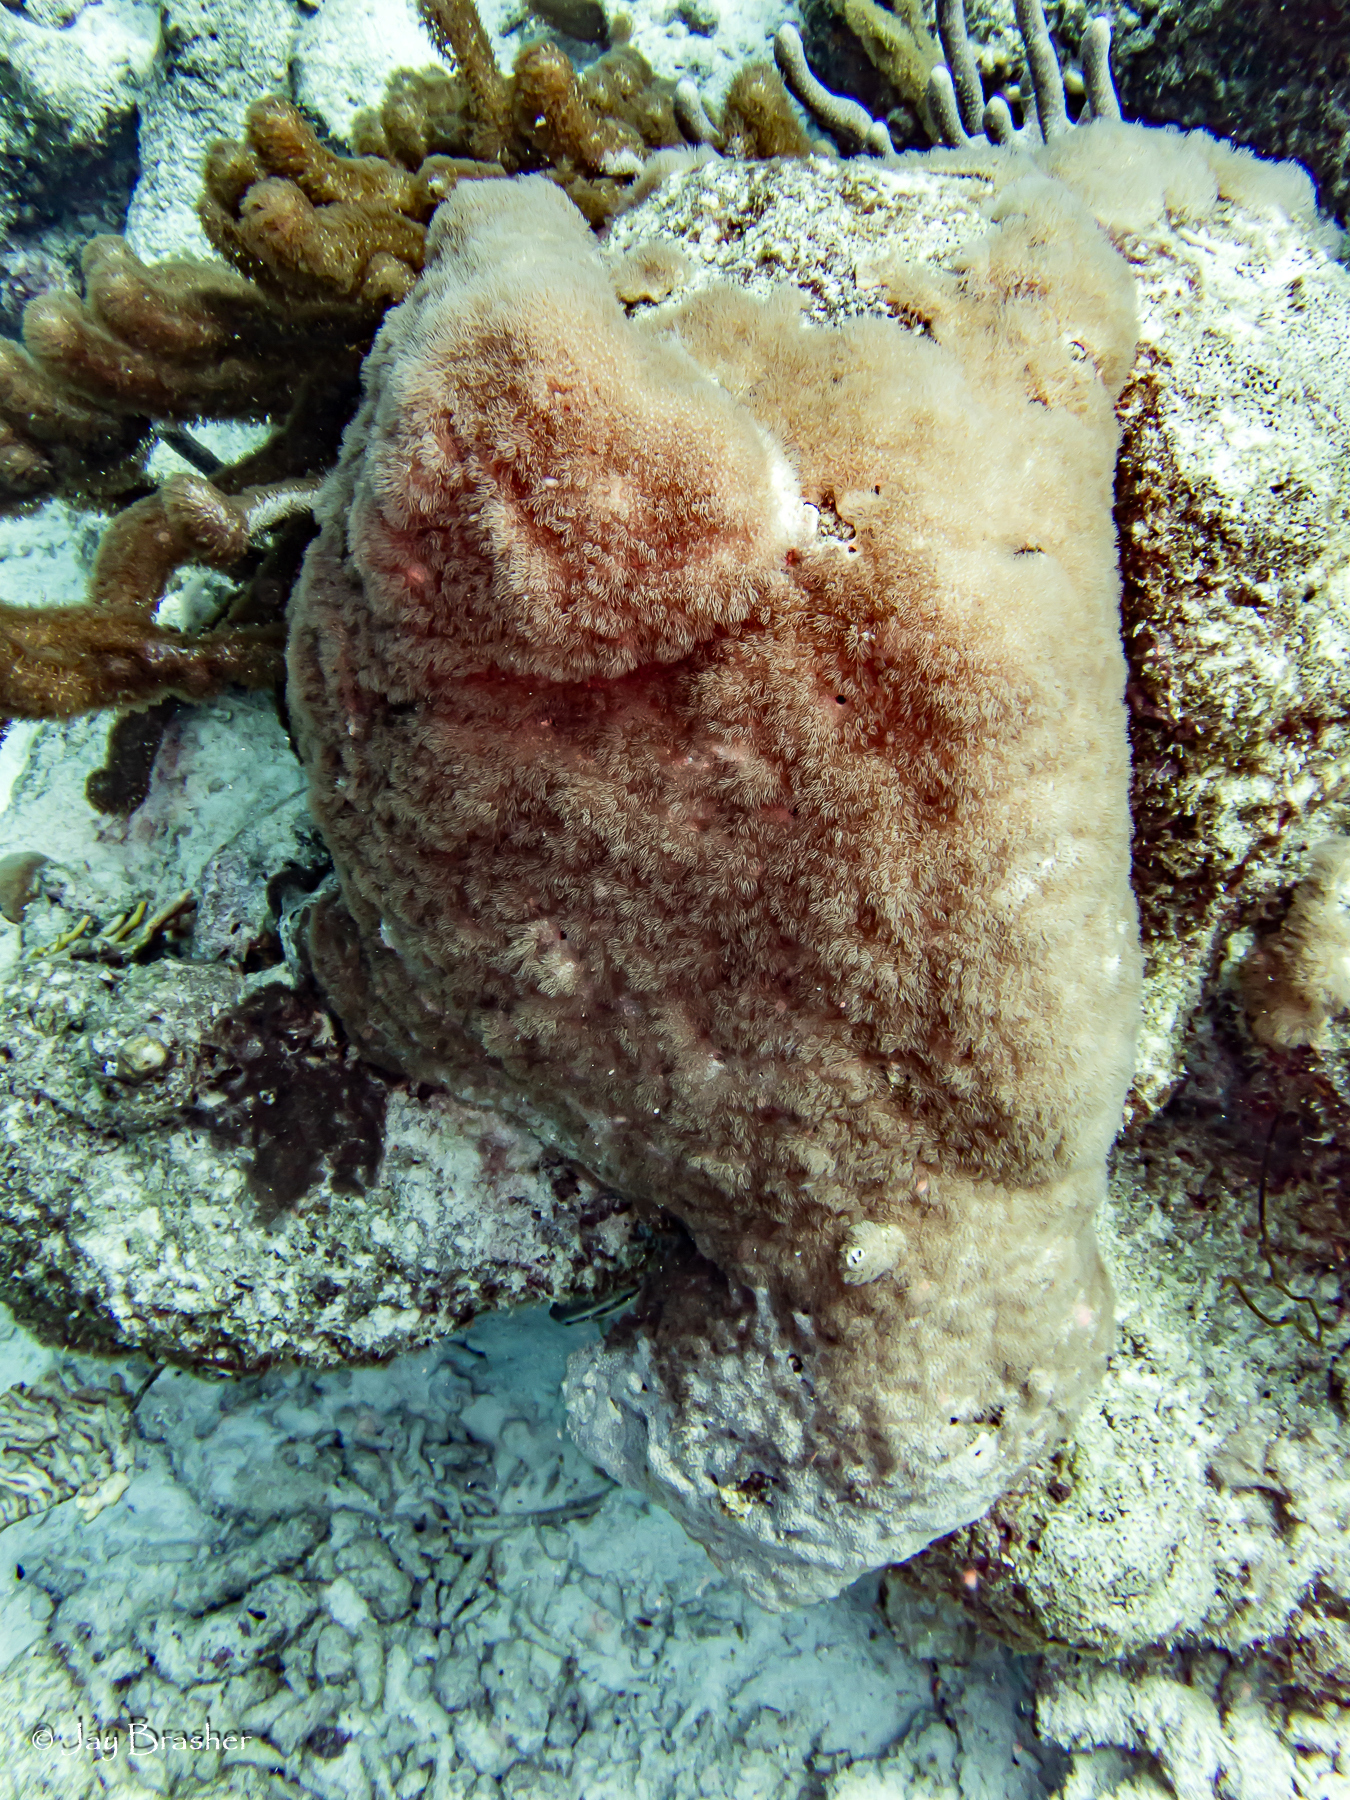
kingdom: Animalia
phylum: Cnidaria
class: Anthozoa
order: Scleralcyonacea
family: Erythropodiidae
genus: Erythropodium
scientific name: Erythropodium caribaeorum
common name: Encrusting gorgonian
